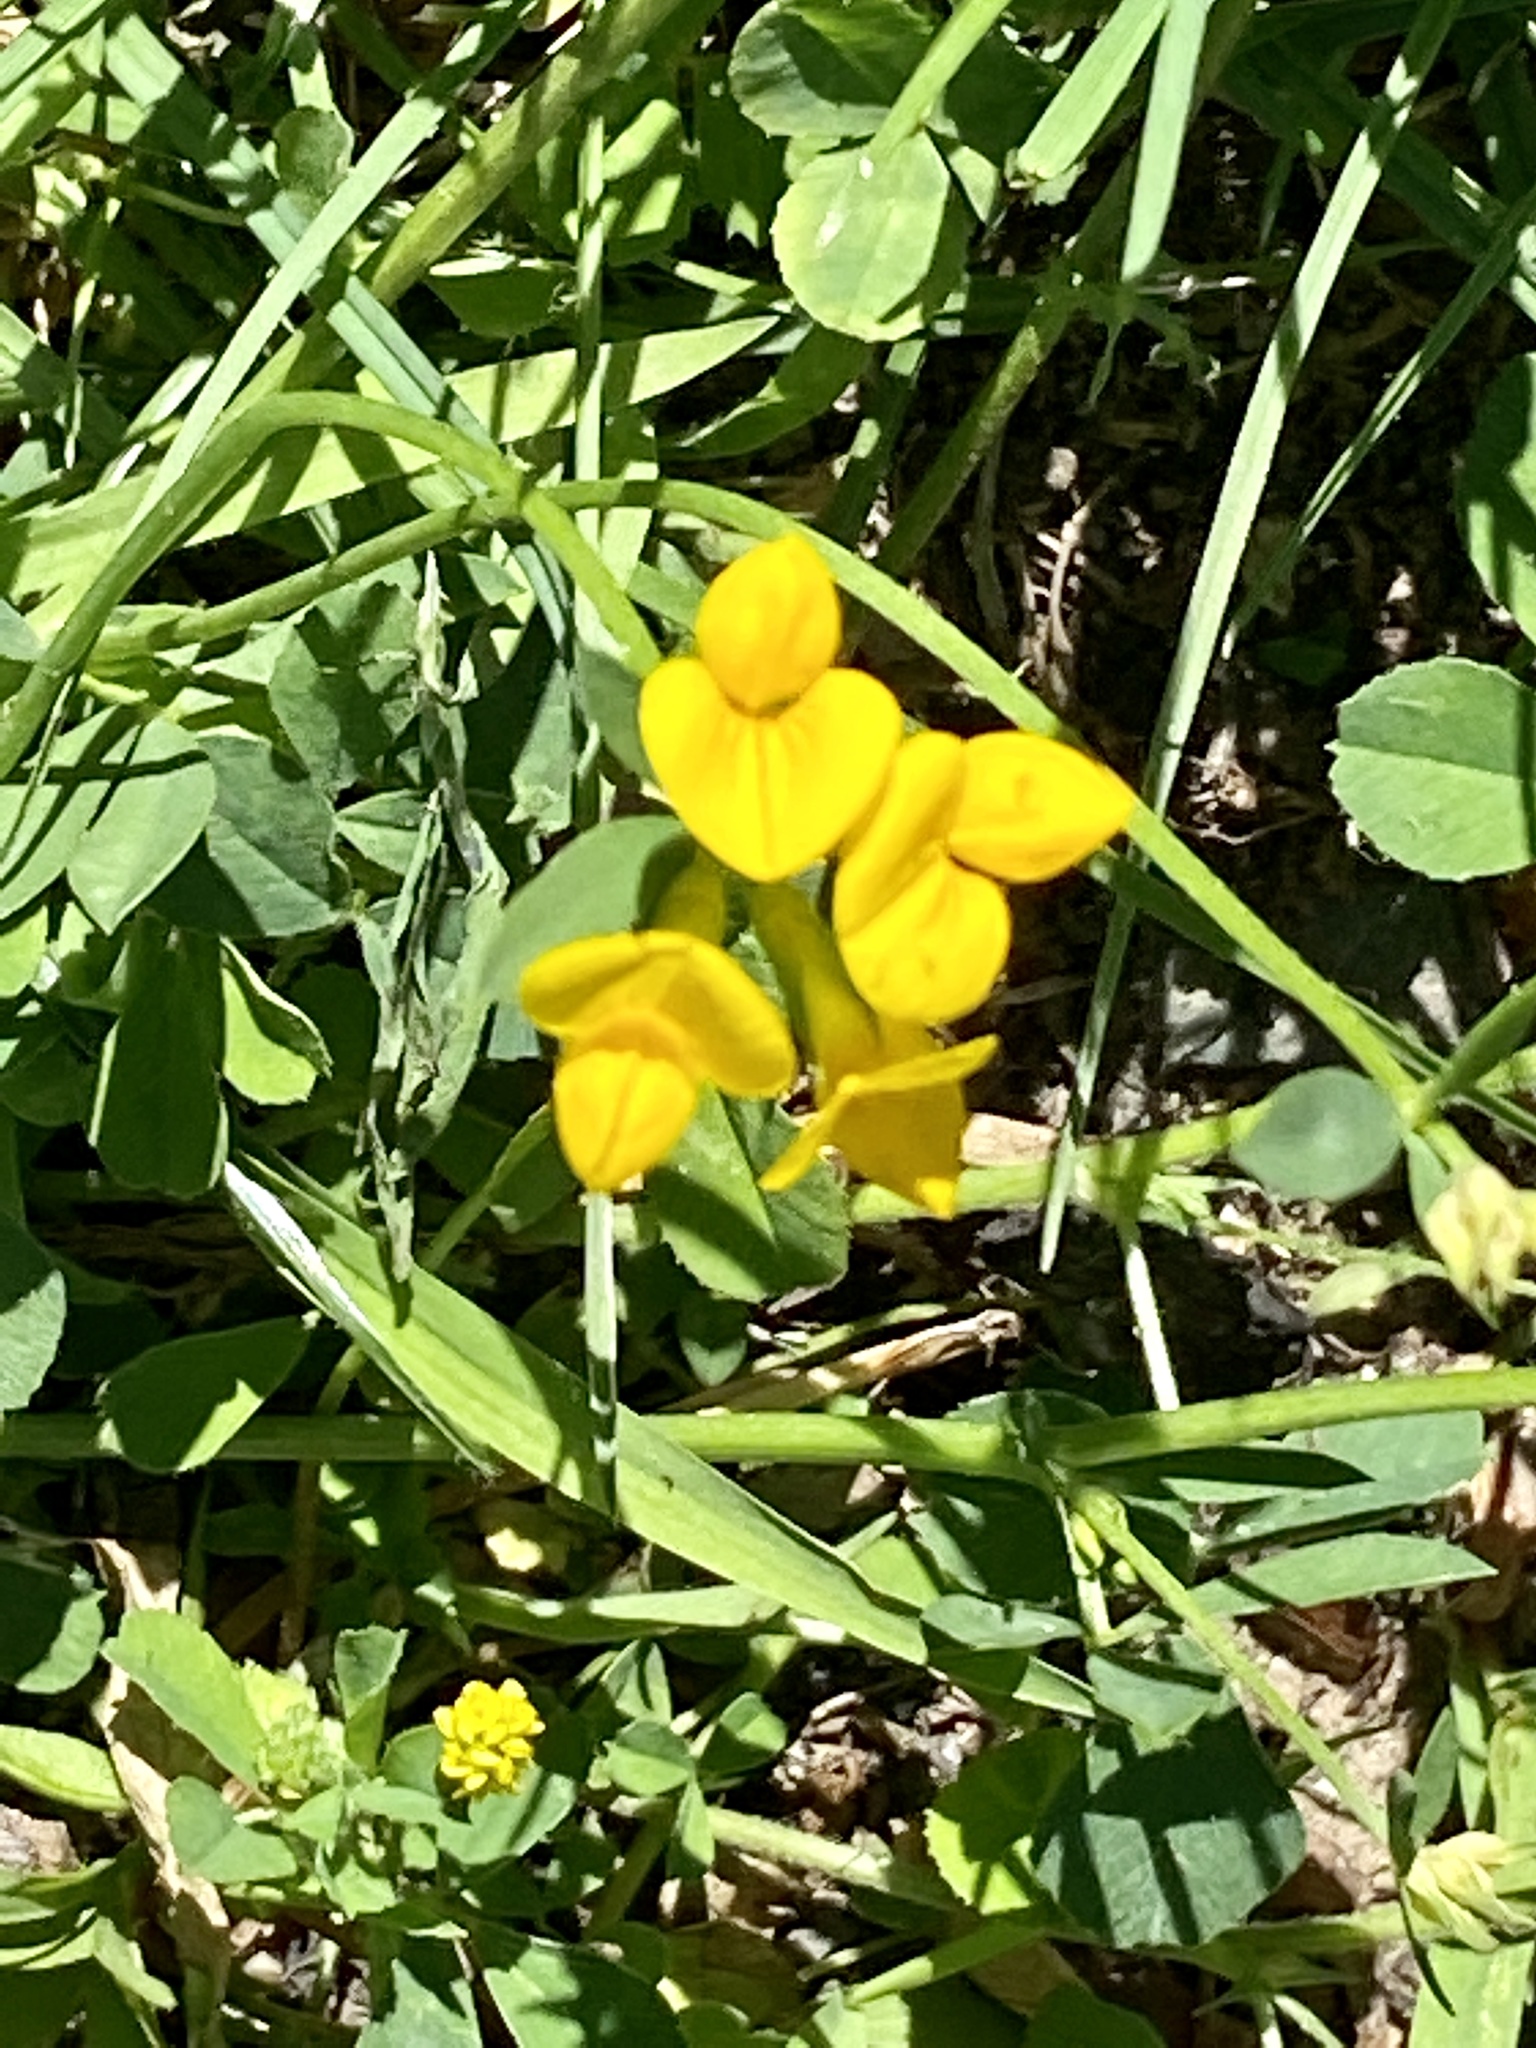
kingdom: Plantae
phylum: Tracheophyta
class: Magnoliopsida
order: Fabales
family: Fabaceae
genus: Lotus
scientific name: Lotus corniculatus
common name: Common bird's-foot-trefoil
